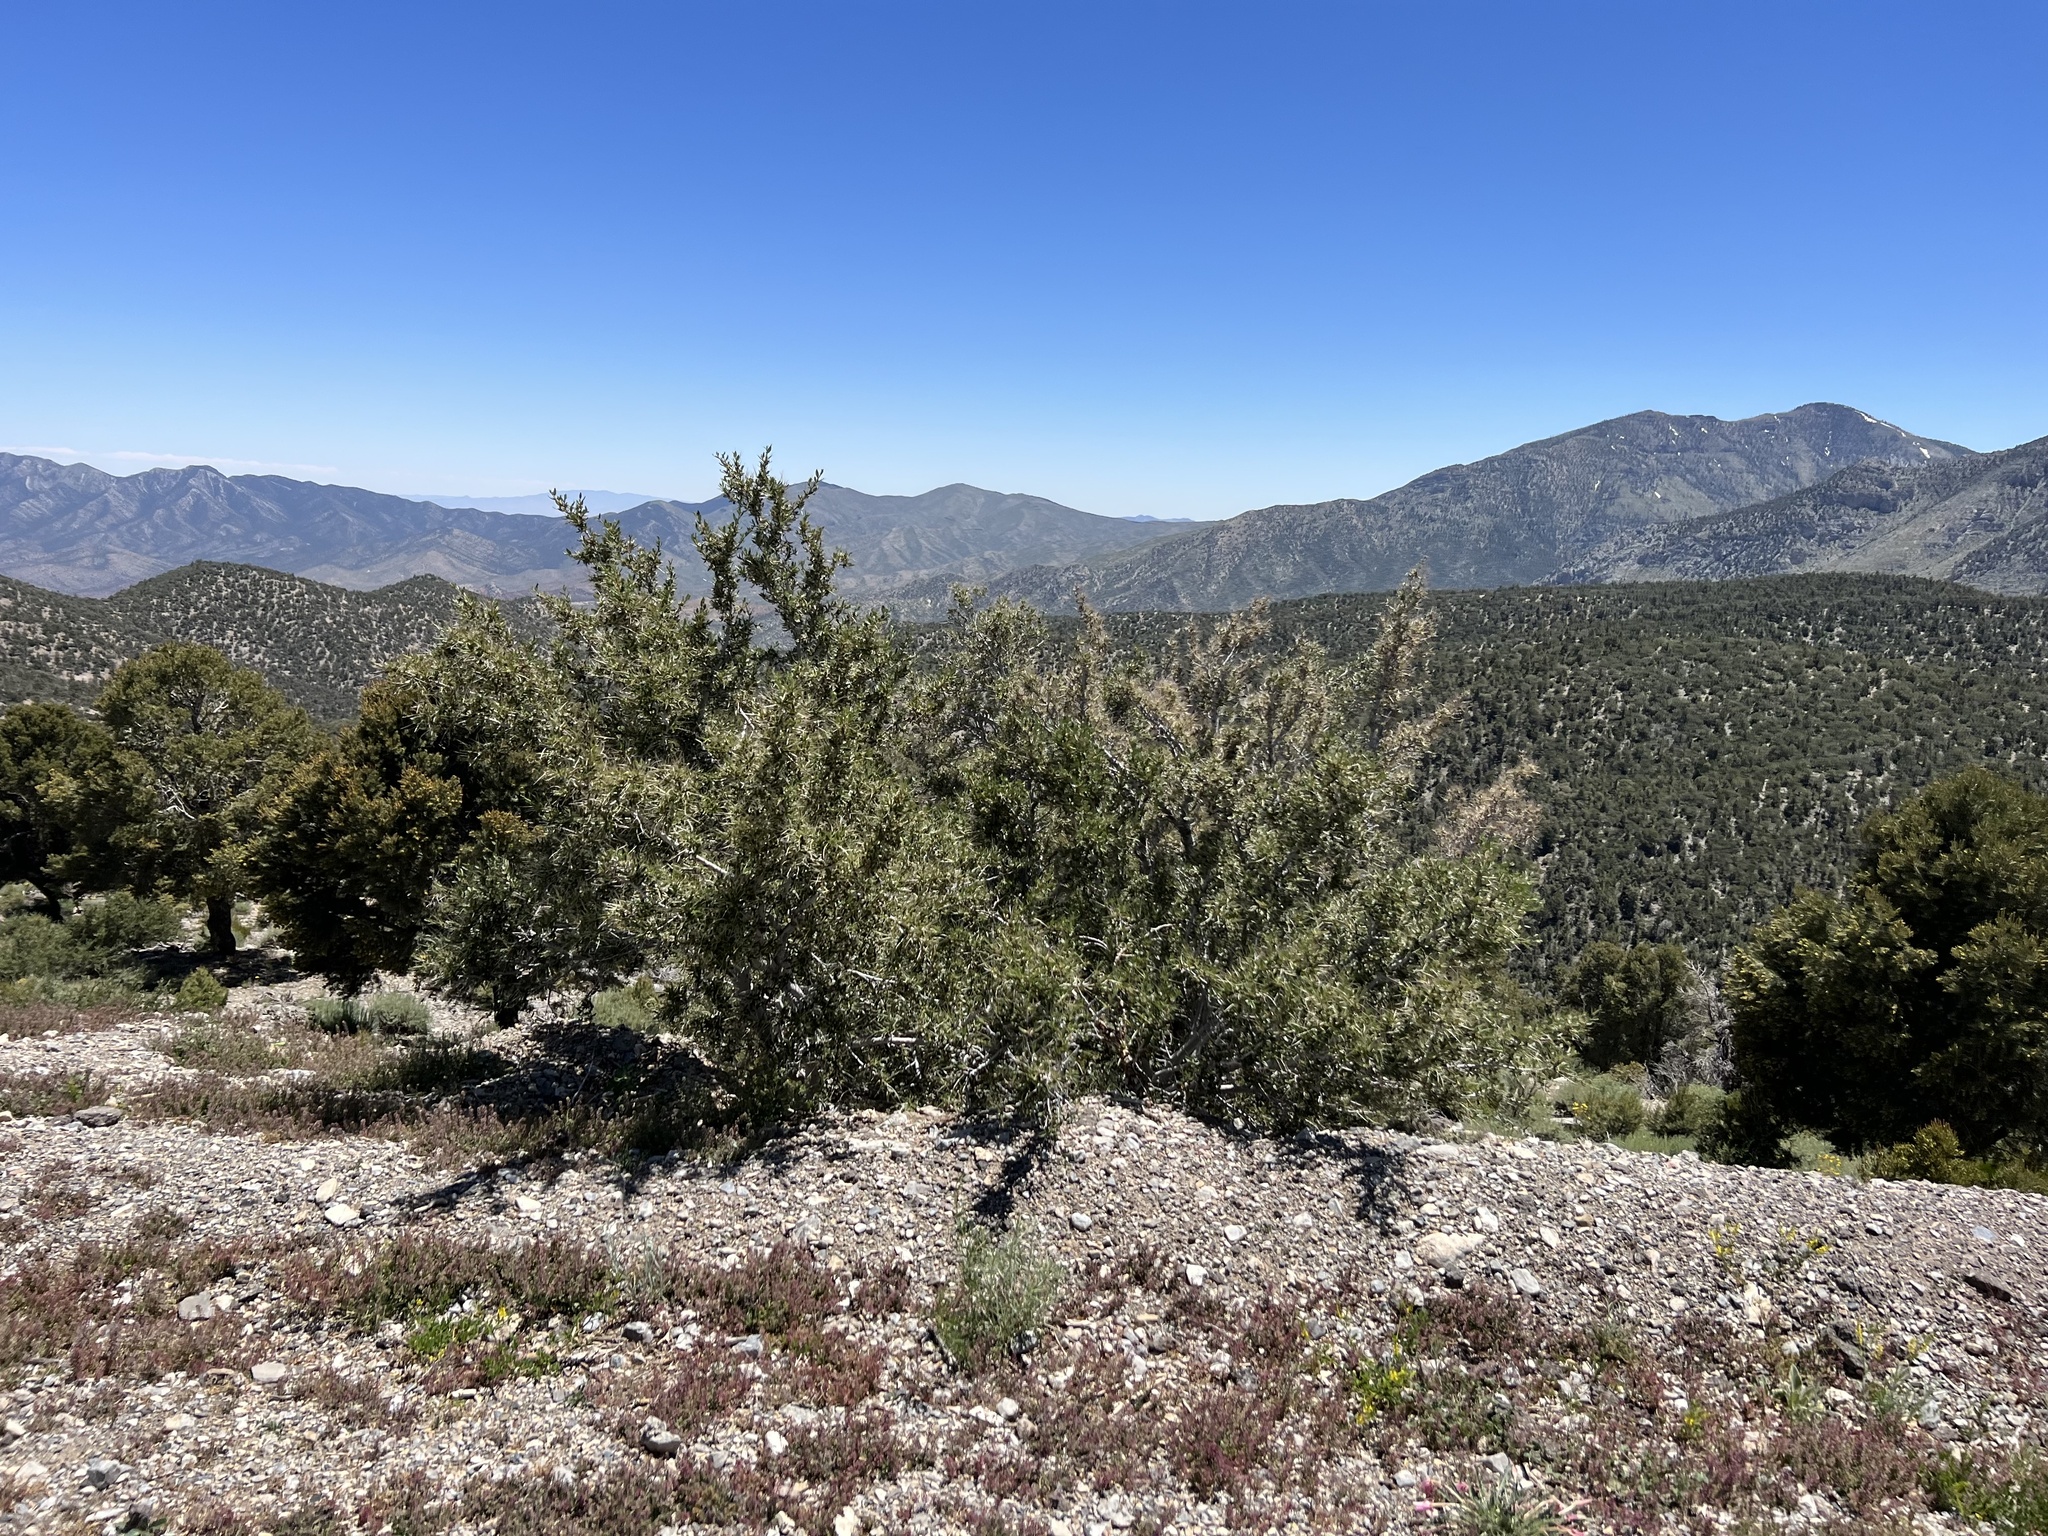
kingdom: Plantae
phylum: Tracheophyta
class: Magnoliopsida
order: Rosales
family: Rosaceae
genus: Cercocarpus
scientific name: Cercocarpus ledifolius
